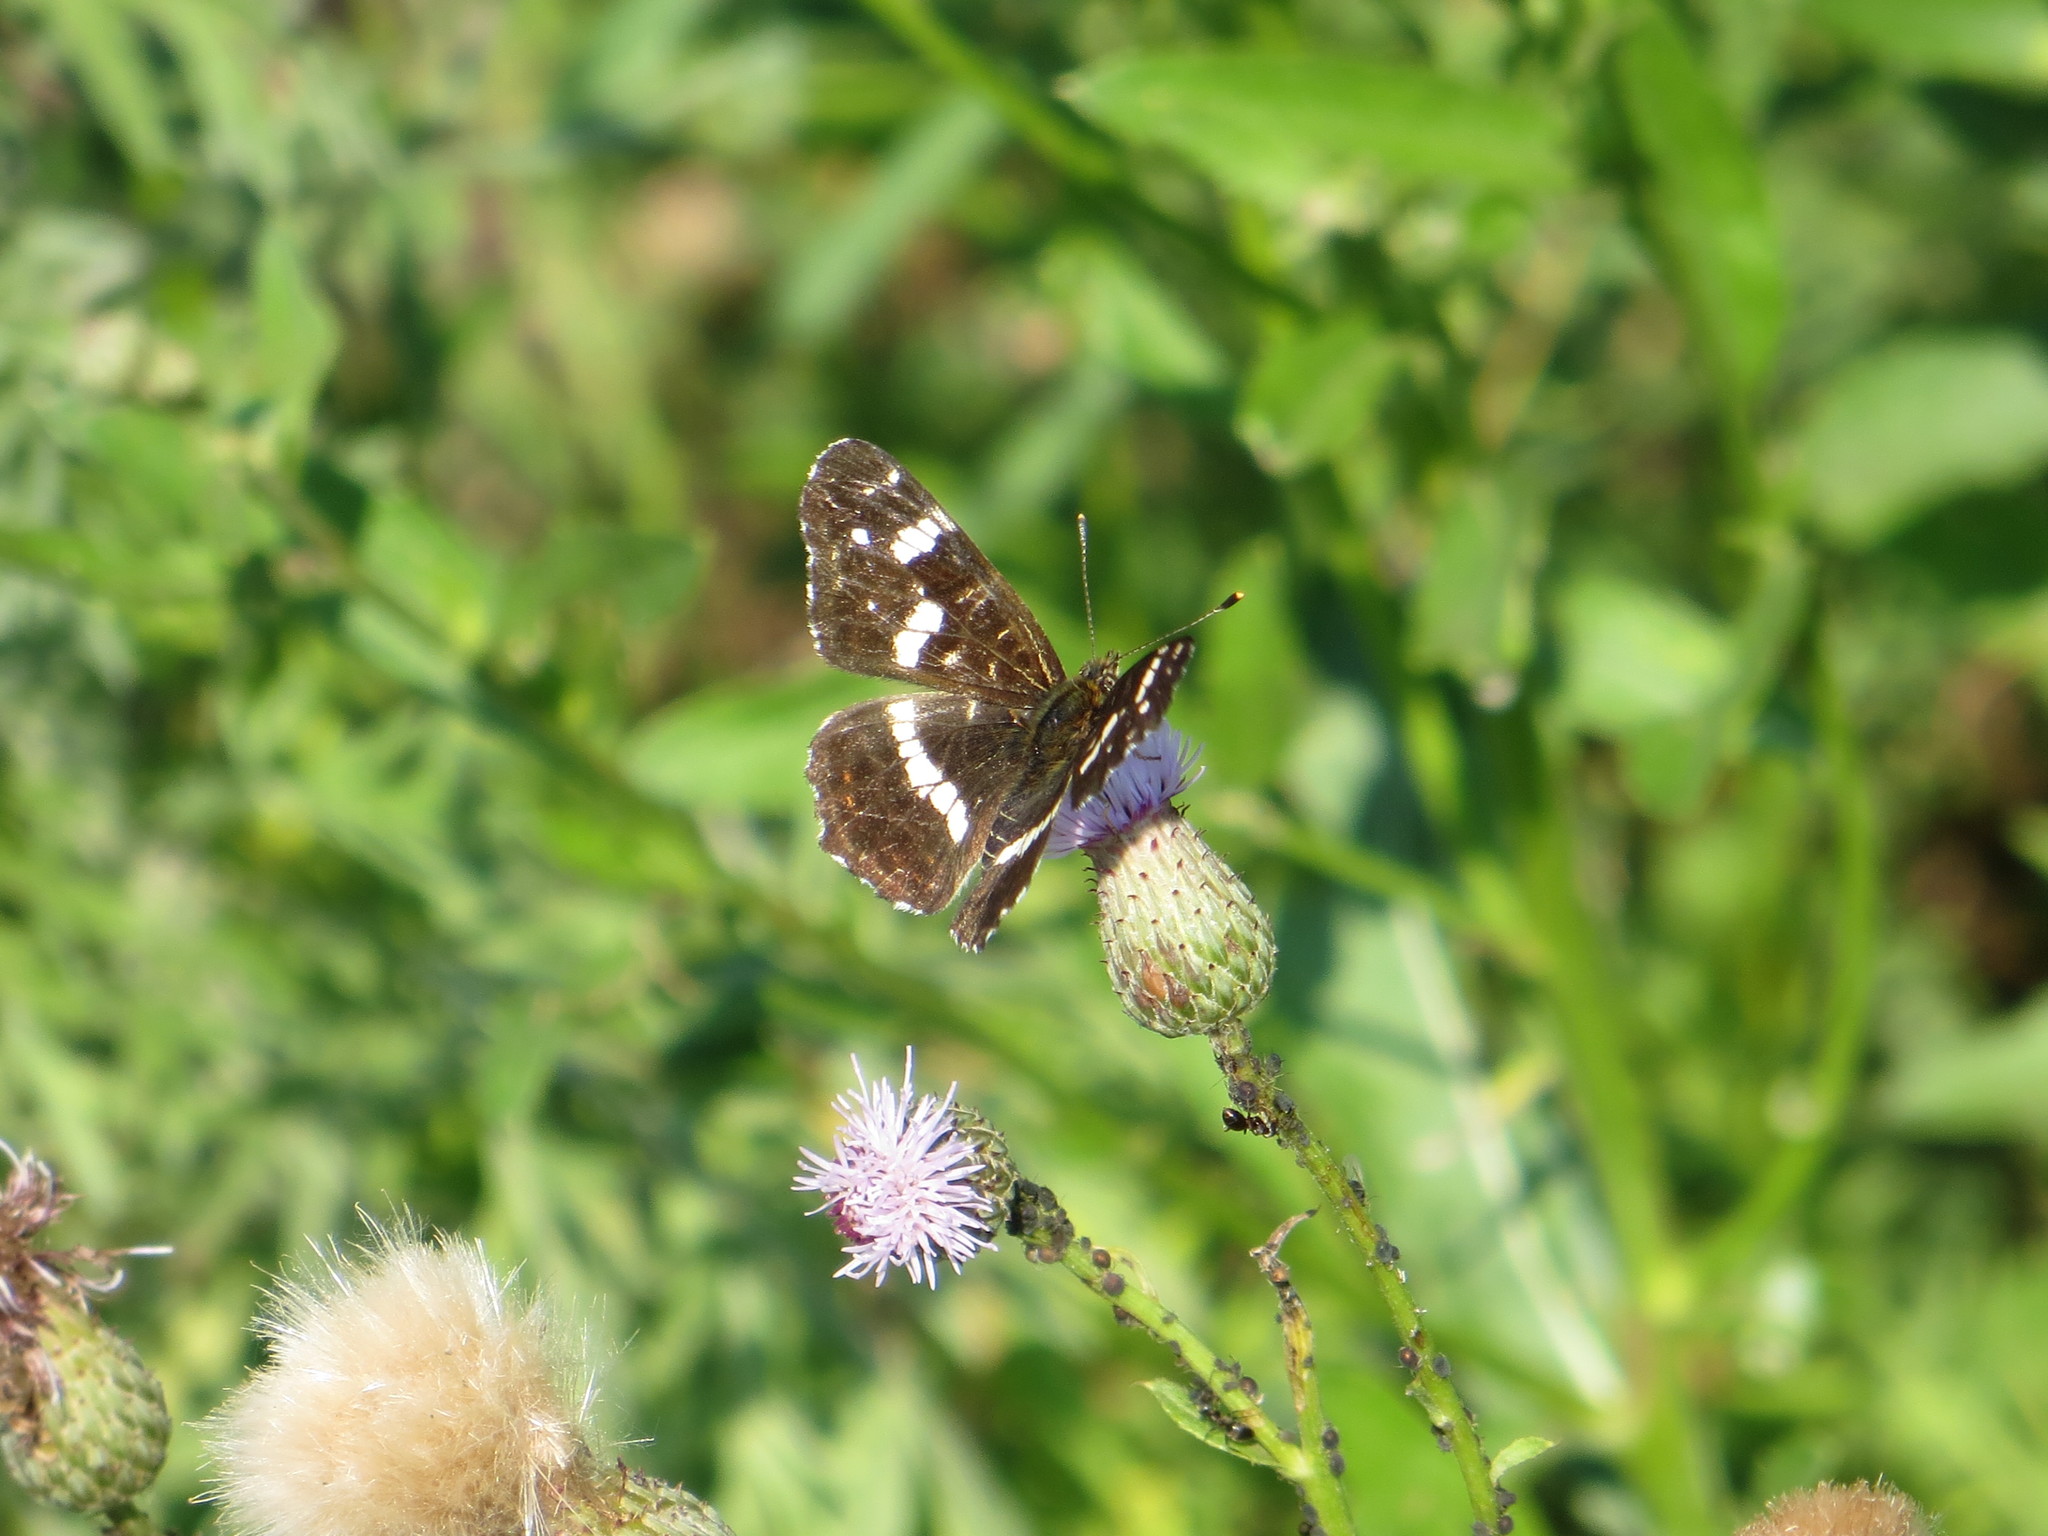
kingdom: Animalia
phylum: Arthropoda
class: Insecta
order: Lepidoptera
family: Nymphalidae
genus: Araschnia
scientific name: Araschnia levana
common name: Map butterfly
